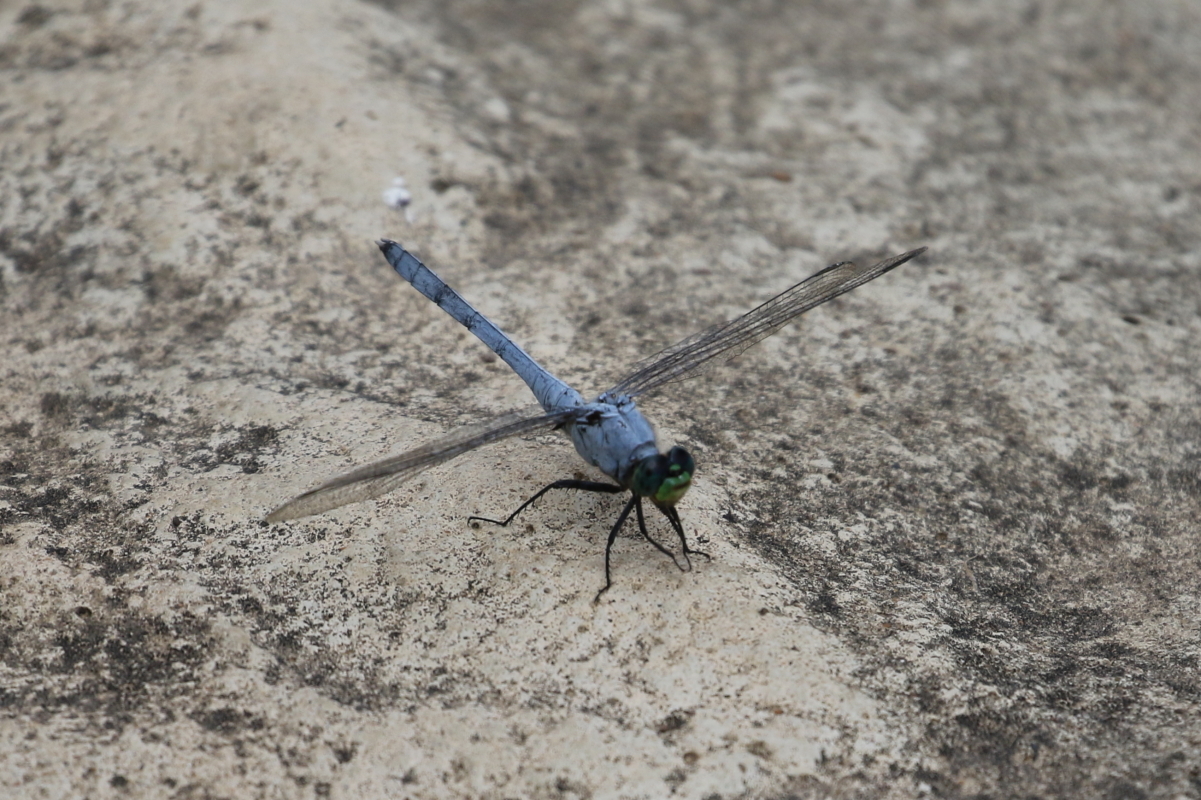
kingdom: Animalia
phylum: Arthropoda
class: Insecta
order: Odonata
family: Libellulidae
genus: Erythemis
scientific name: Erythemis simplicicollis
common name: Eastern pondhawk
